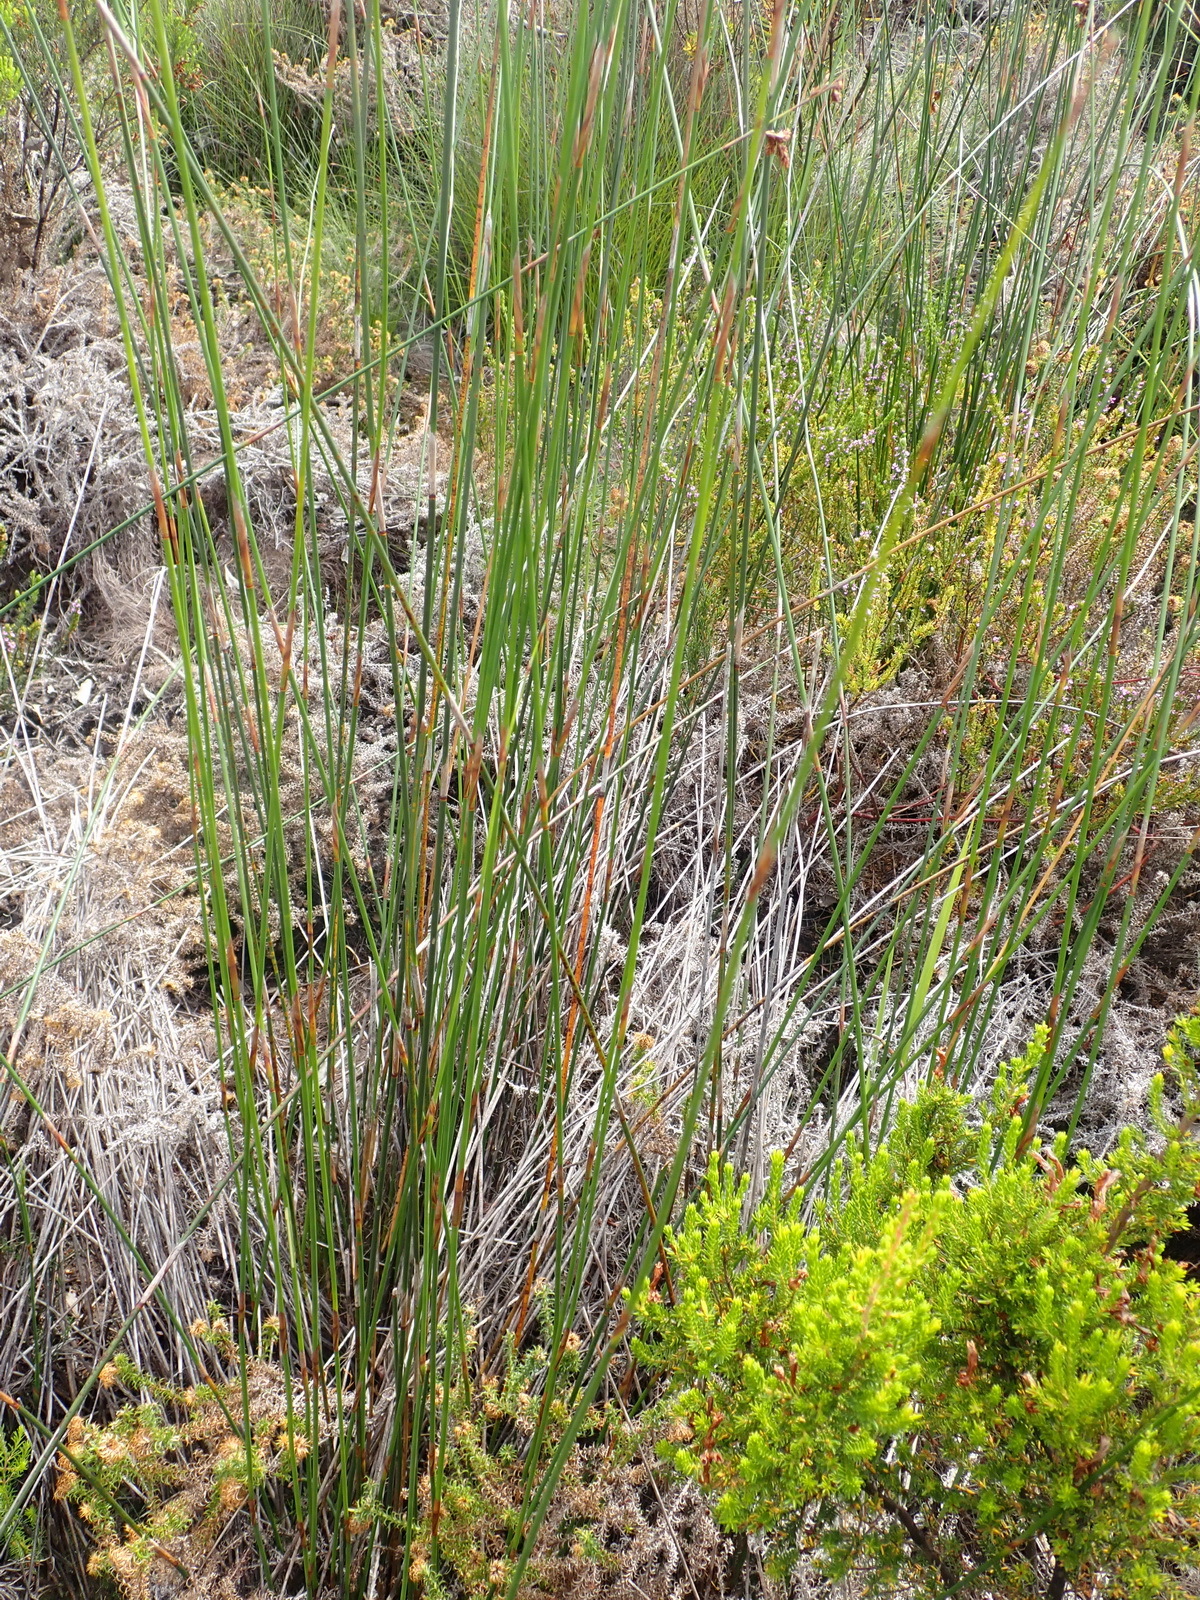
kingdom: Plantae
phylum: Tracheophyta
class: Liliopsida
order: Poales
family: Restionaceae
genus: Thamnochortus
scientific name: Thamnochortus insignis
